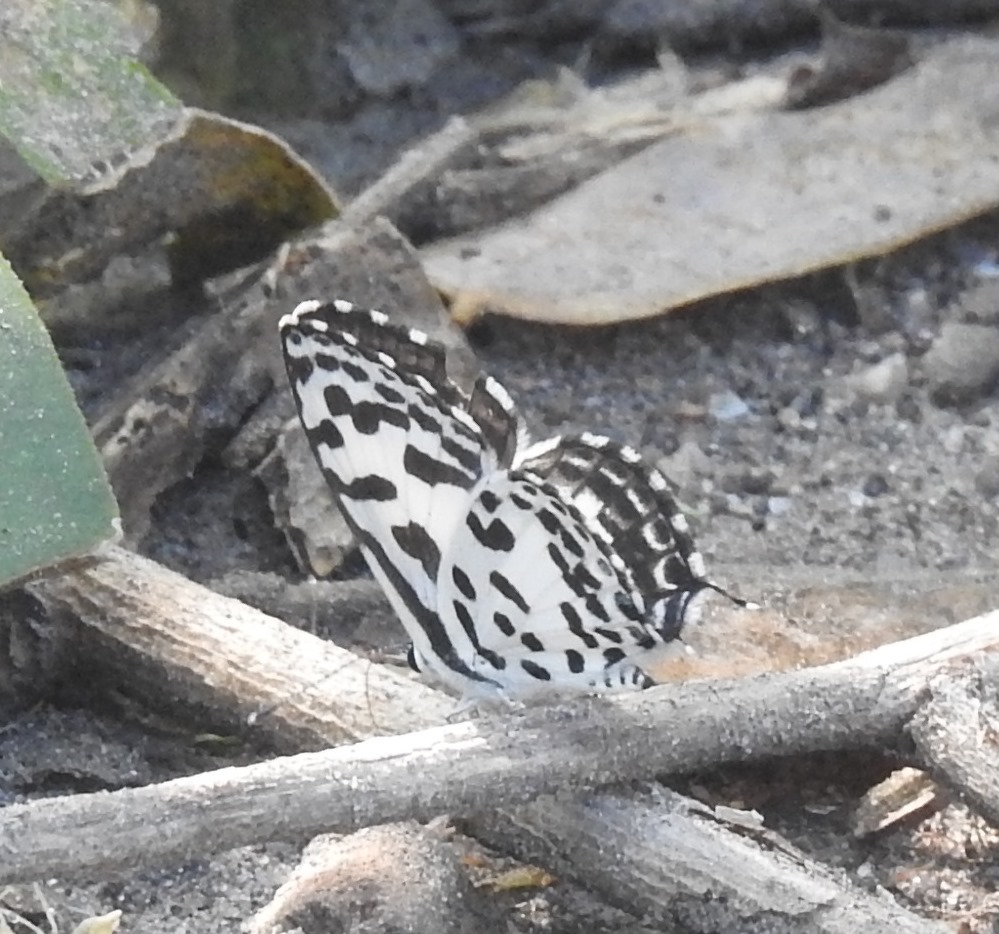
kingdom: Animalia
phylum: Arthropoda
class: Insecta
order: Lepidoptera
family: Lycaenidae
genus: Castalius
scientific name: Castalius rosimon
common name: Common pierrot
